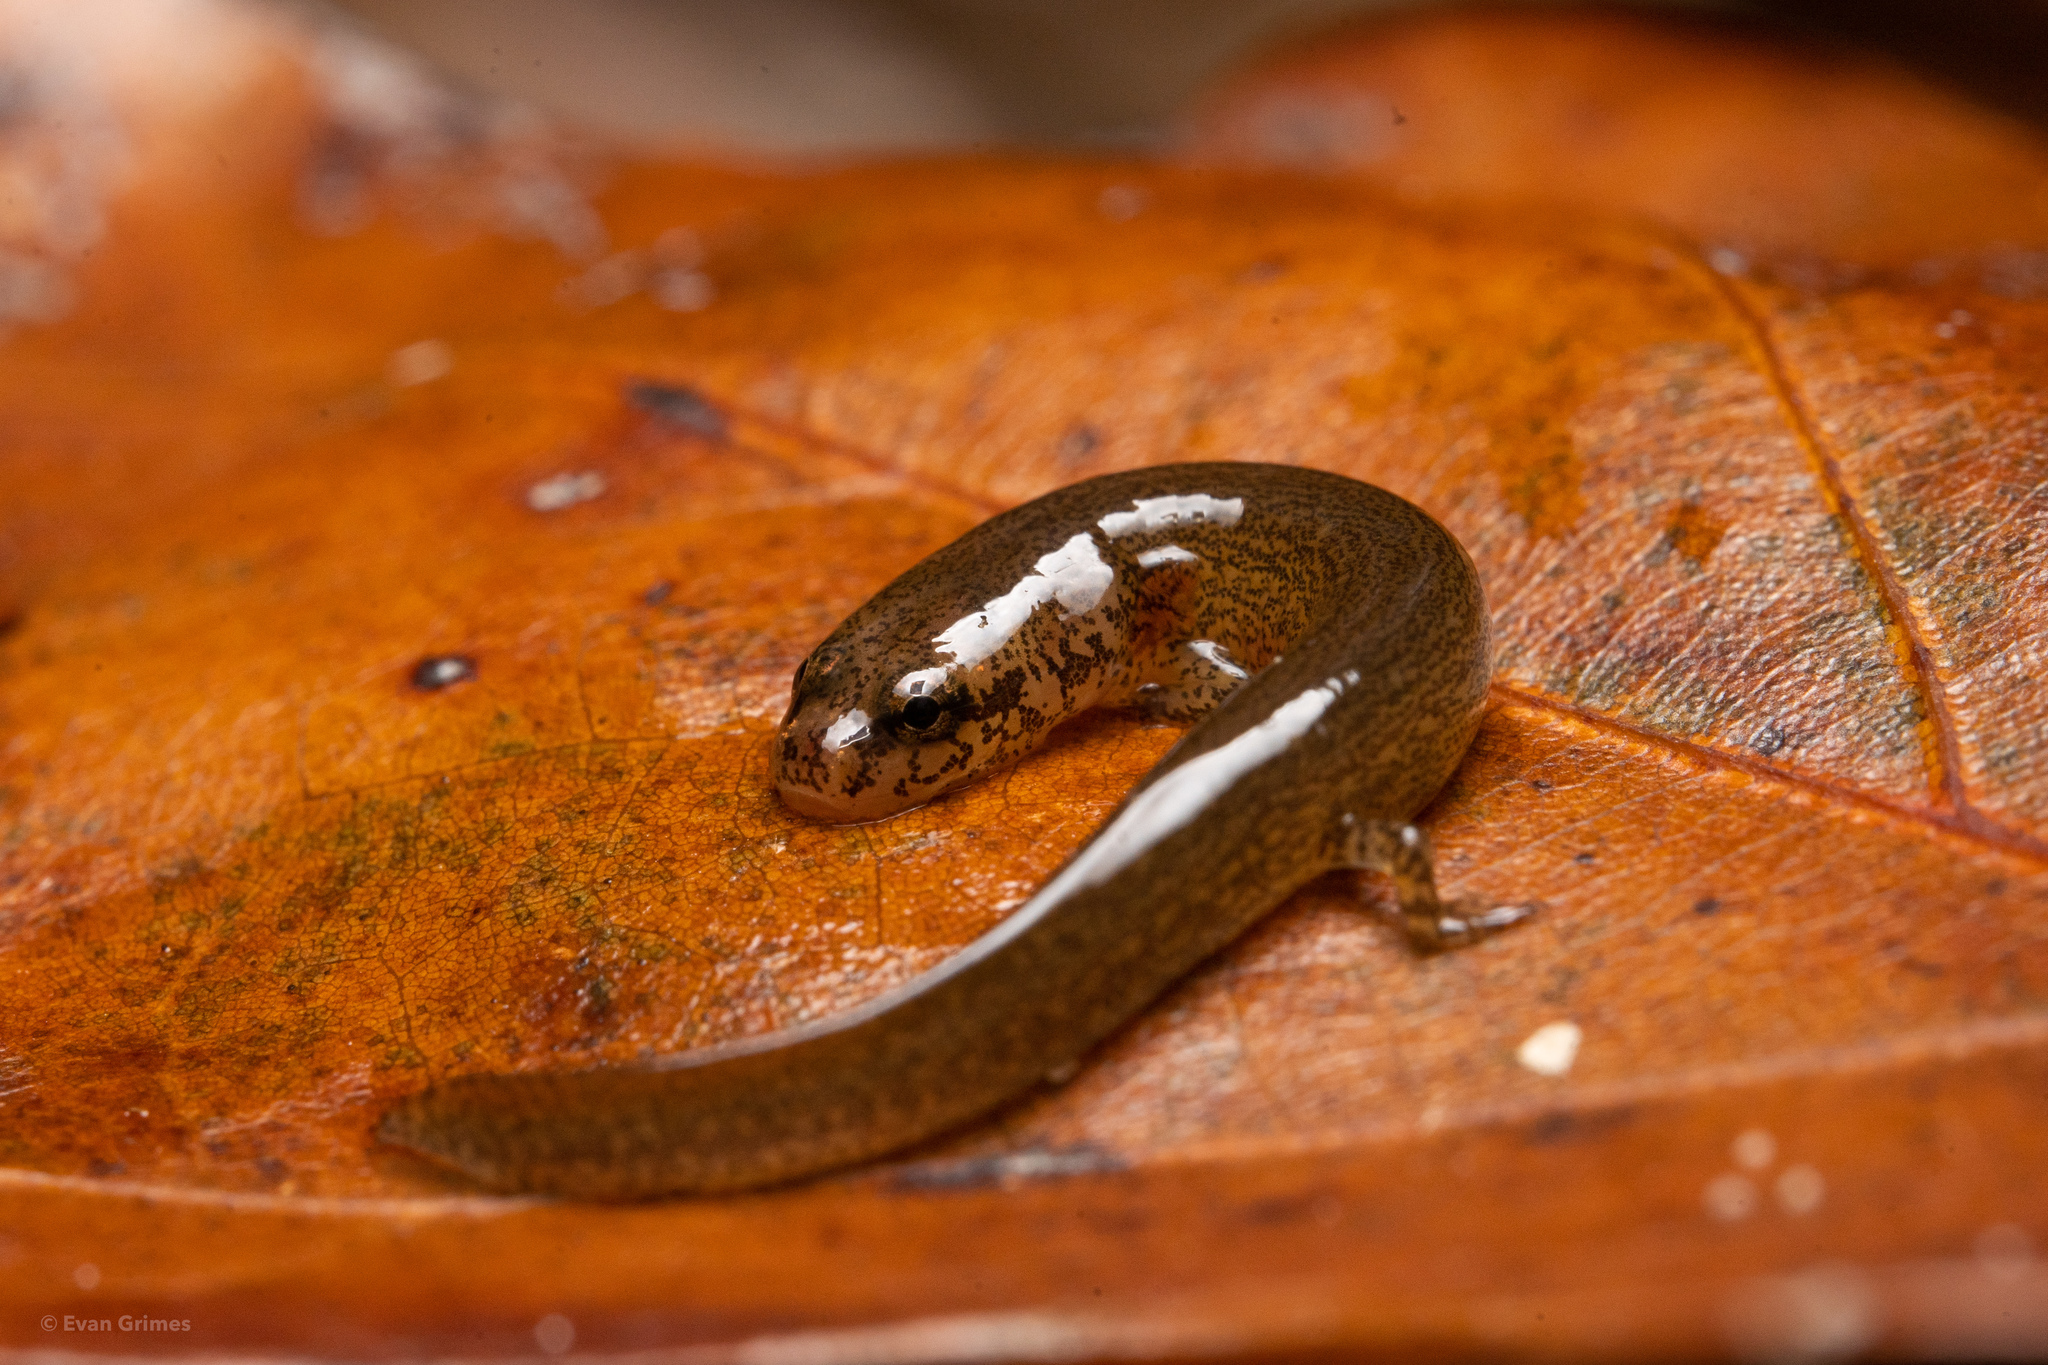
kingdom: Animalia
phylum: Chordata
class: Amphibia
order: Caudata
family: Plethodontidae
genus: Eurycea
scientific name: Eurycea cirrigera
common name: Southern two-lined salamander
